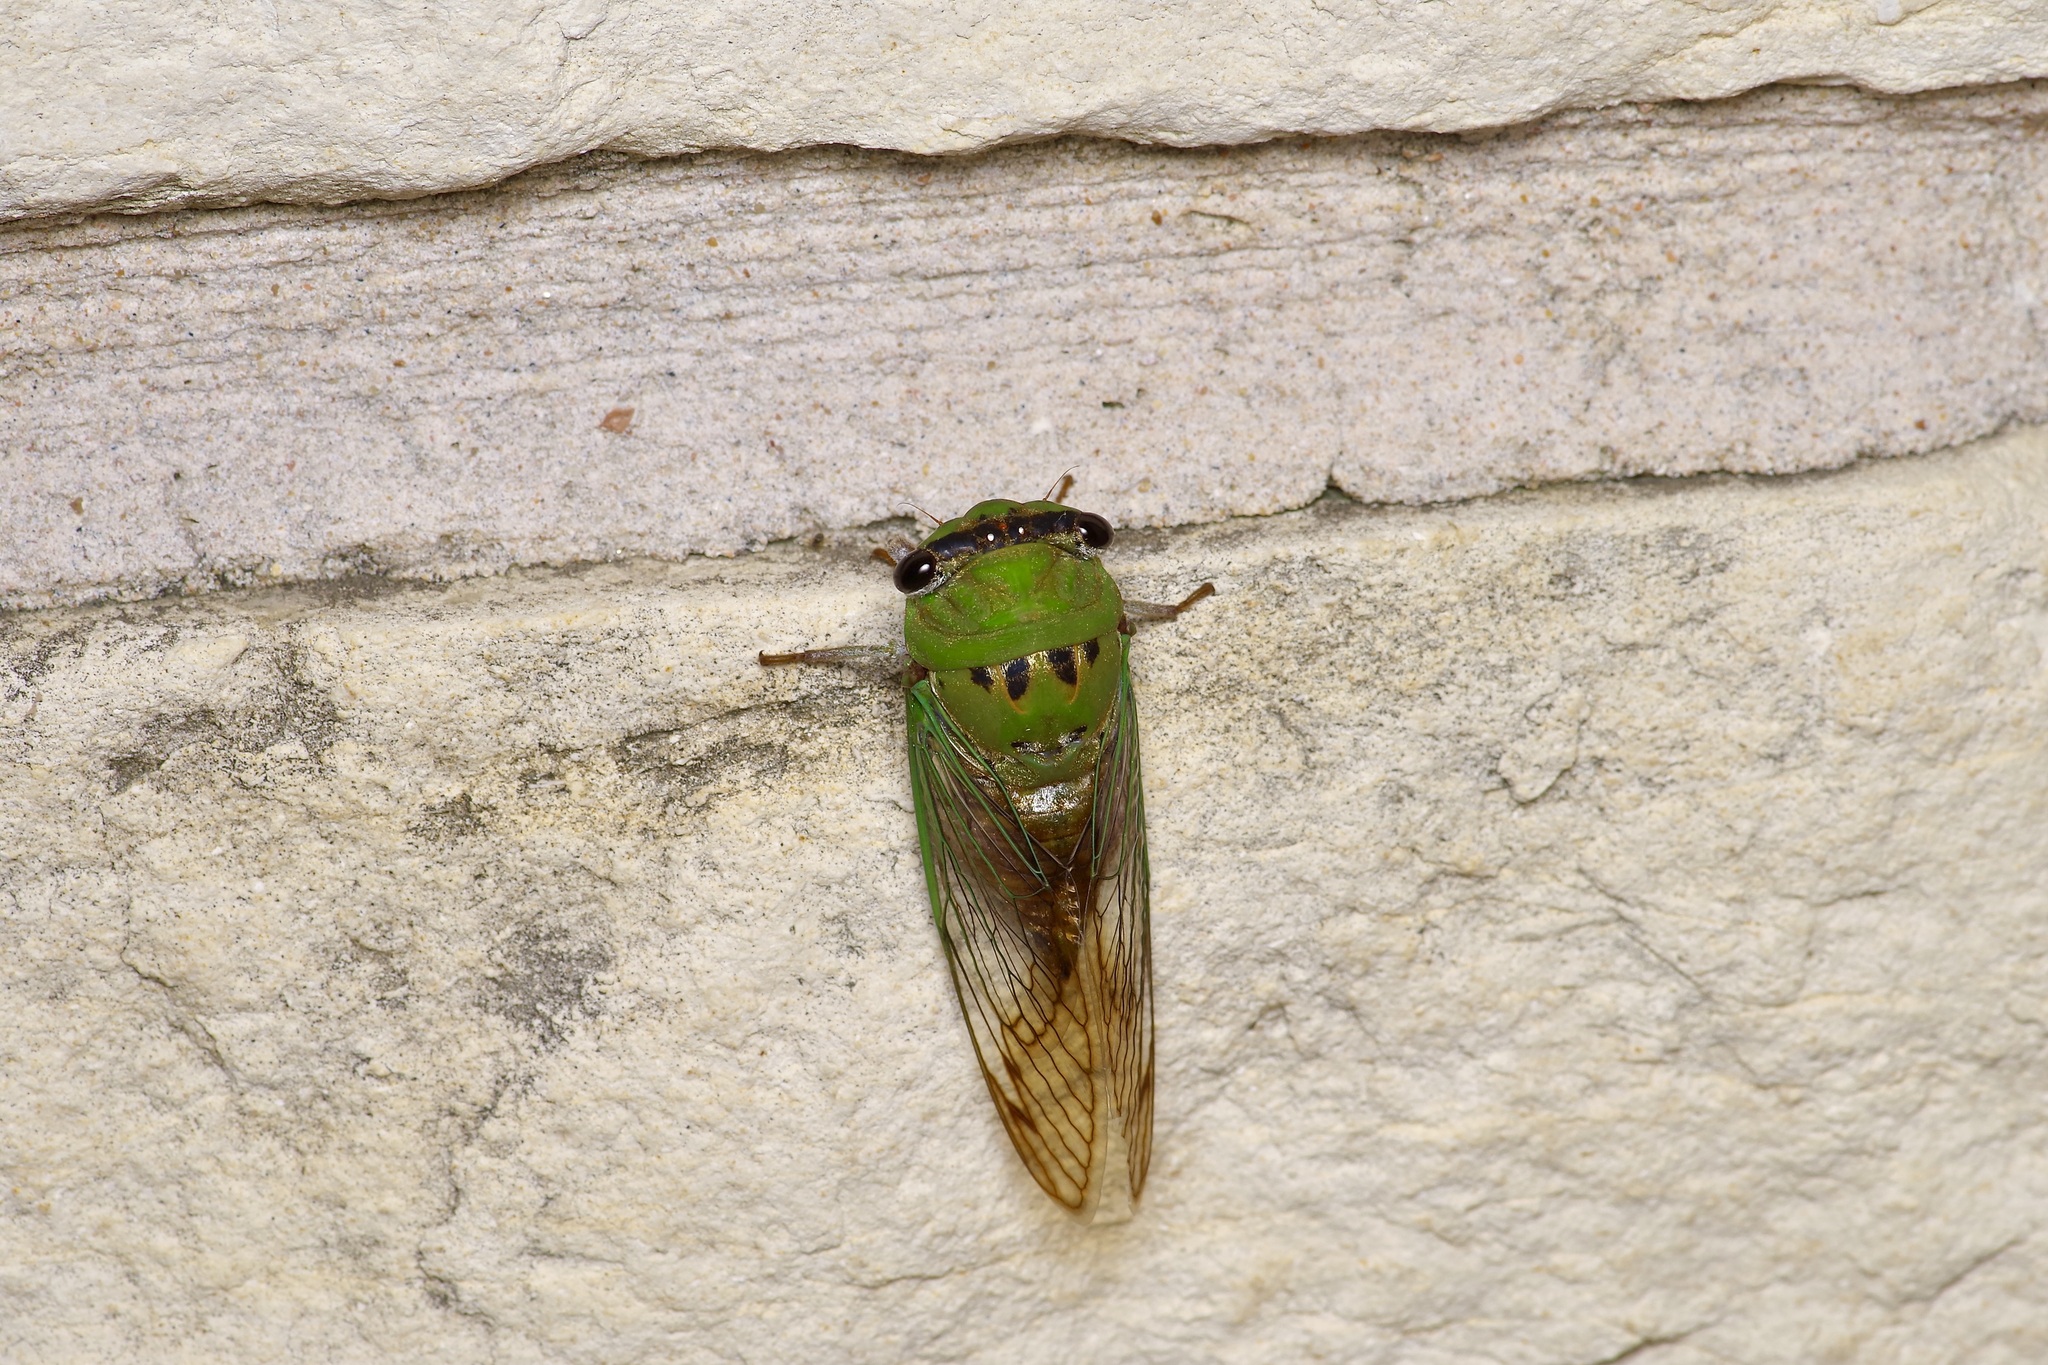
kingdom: Animalia
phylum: Arthropoda
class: Insecta
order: Hemiptera
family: Cicadidae
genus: Neotibicen
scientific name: Neotibicen superbus
